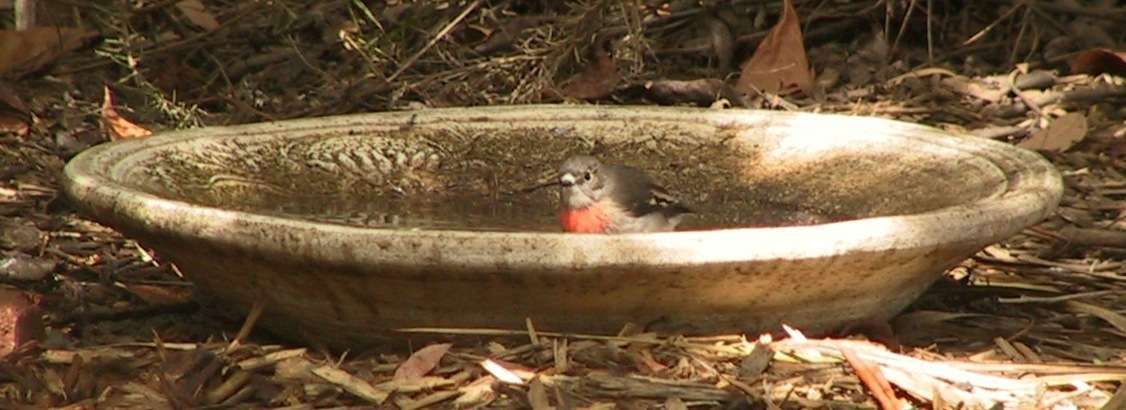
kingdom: Animalia
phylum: Chordata
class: Aves
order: Passeriformes
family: Petroicidae
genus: Petroica
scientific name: Petroica boodang
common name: Scarlet robin
